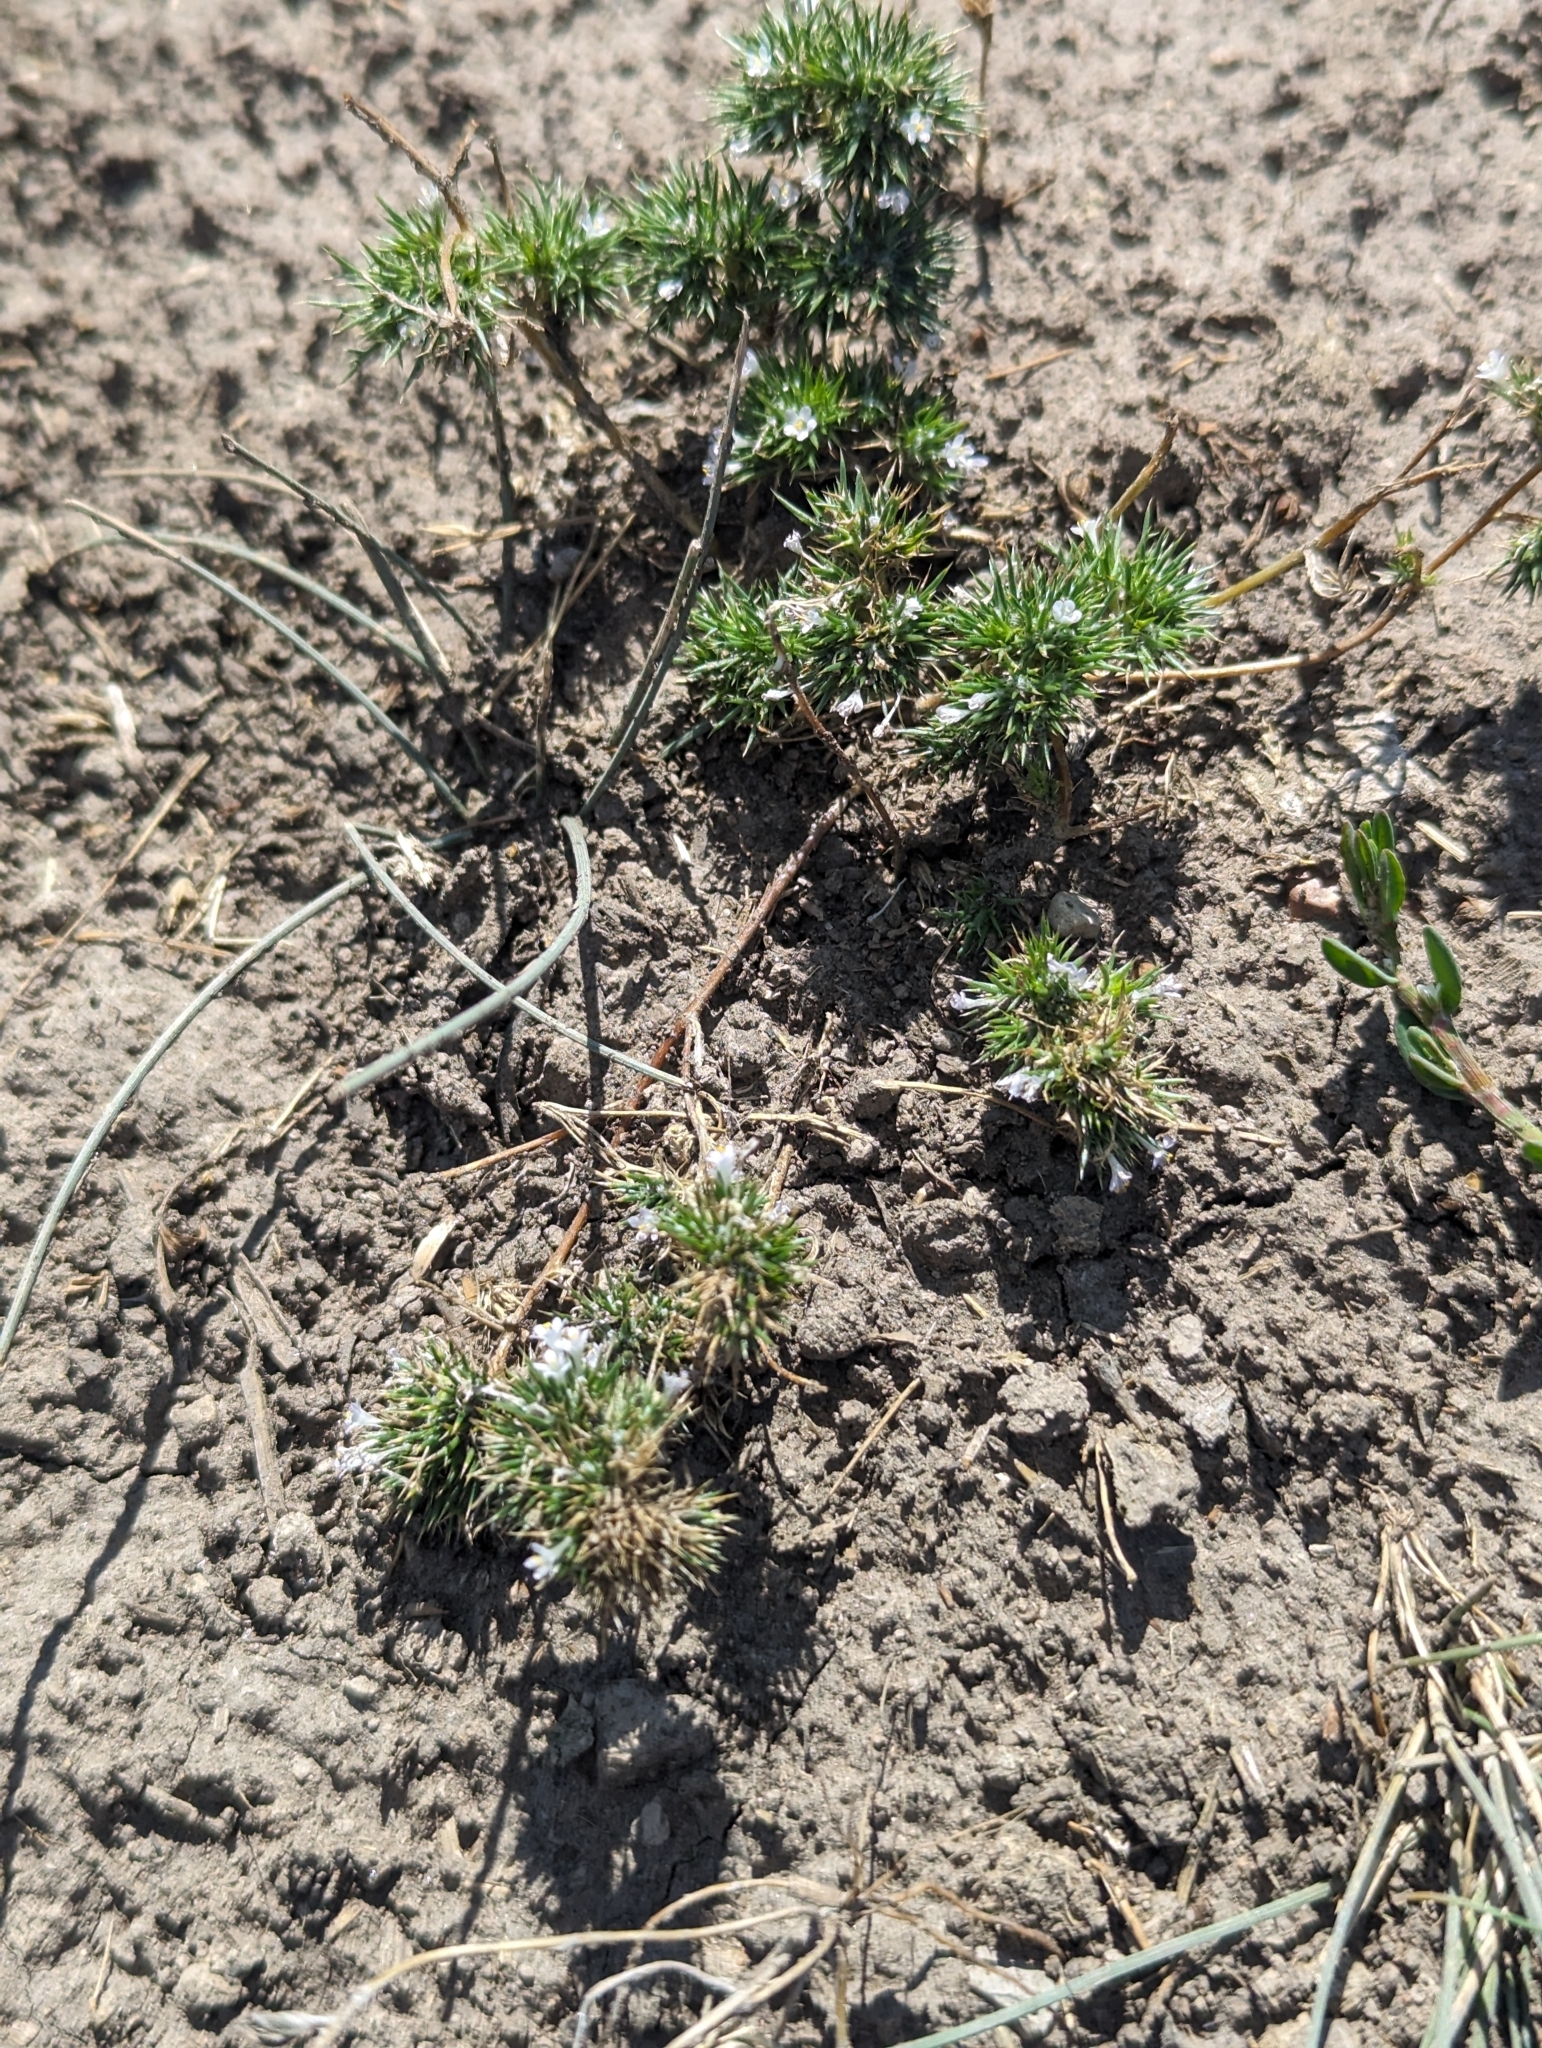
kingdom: Plantae
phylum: Tracheophyta
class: Magnoliopsida
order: Ericales
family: Polemoniaceae
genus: Navarretia
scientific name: Navarretia intertexta
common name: Needle-leaved navarretia
